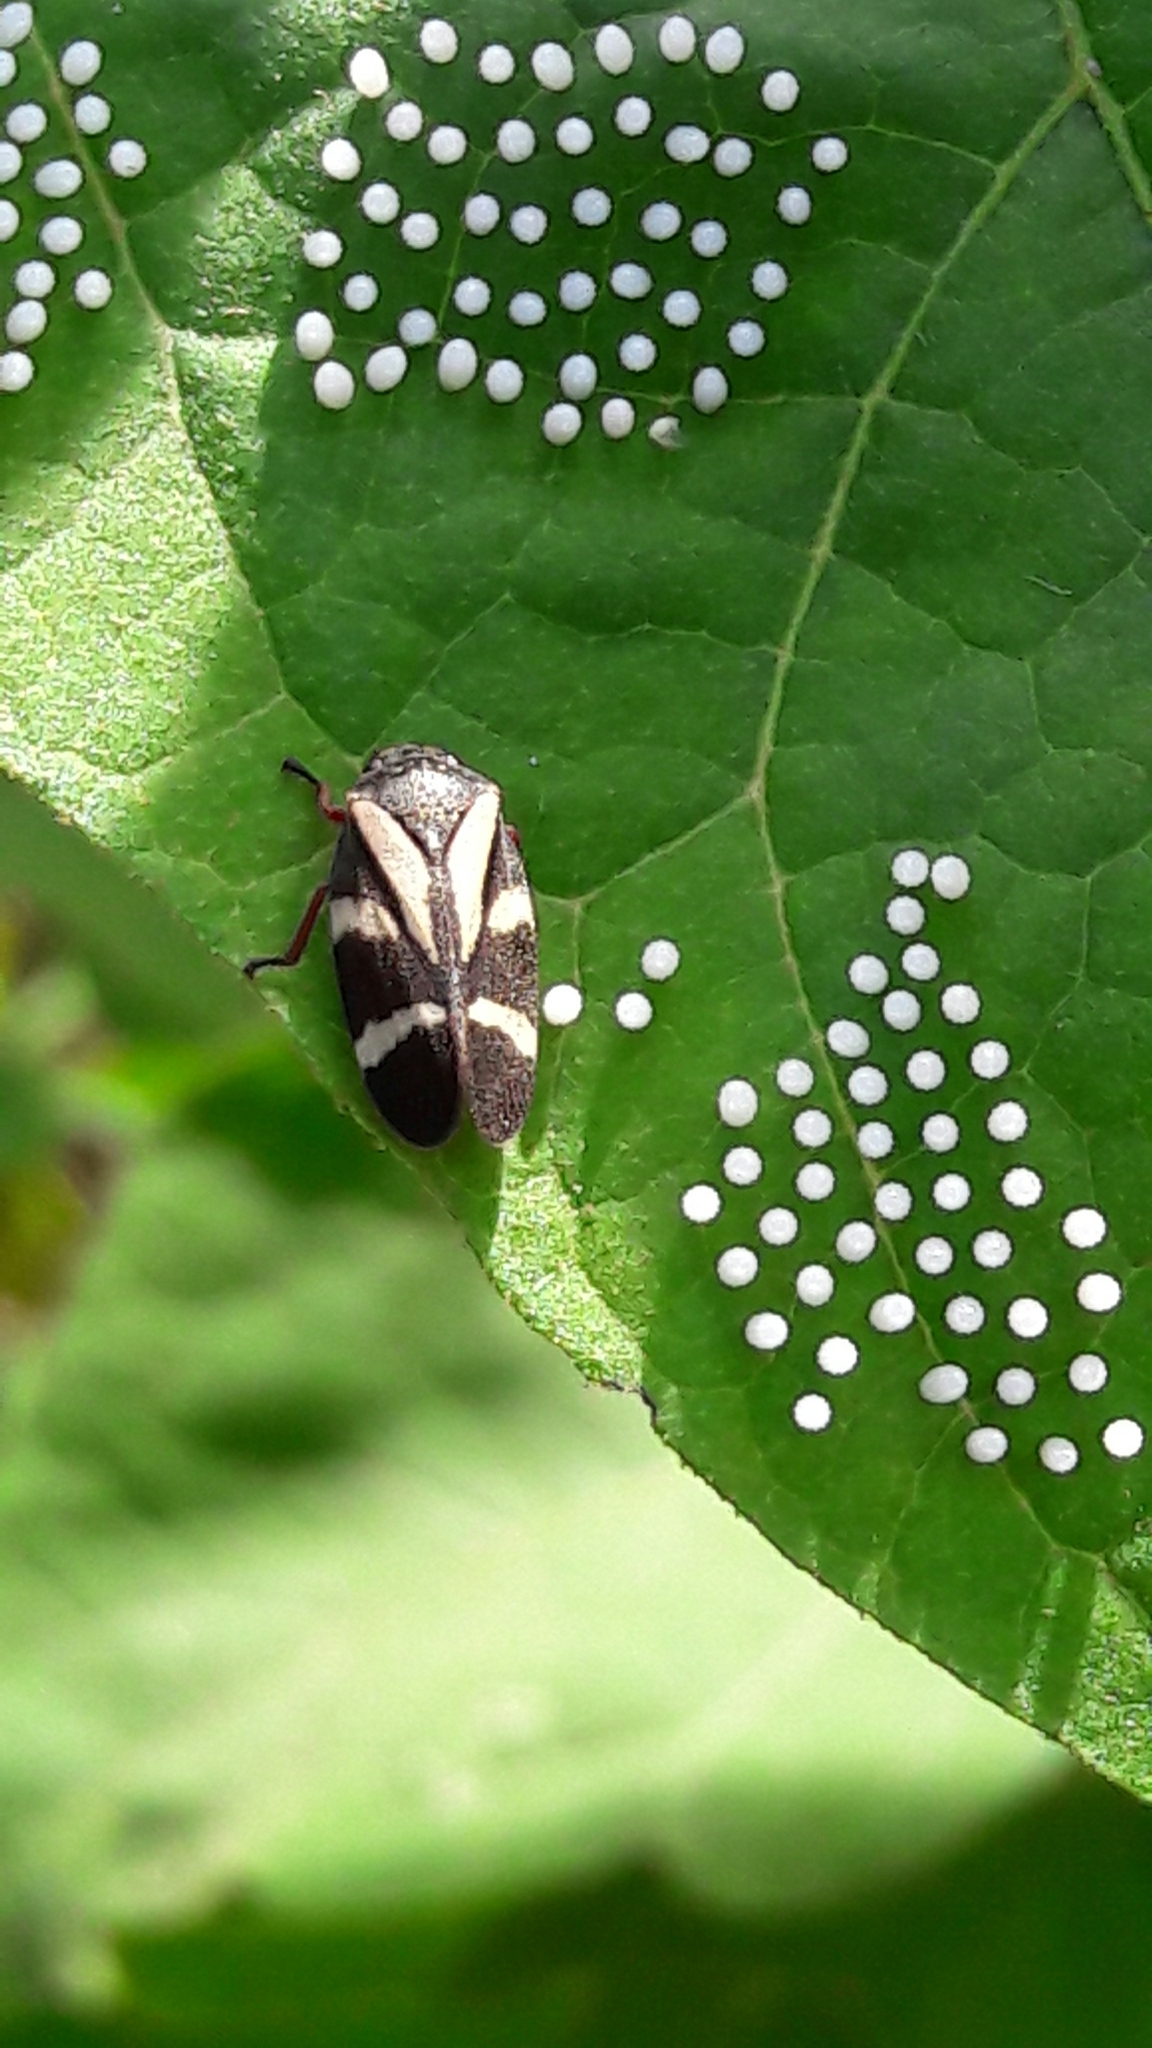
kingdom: Animalia
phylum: Arthropoda
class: Insecta
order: Hemiptera
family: Cercopidae
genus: Deois
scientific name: Deois flavopicta
